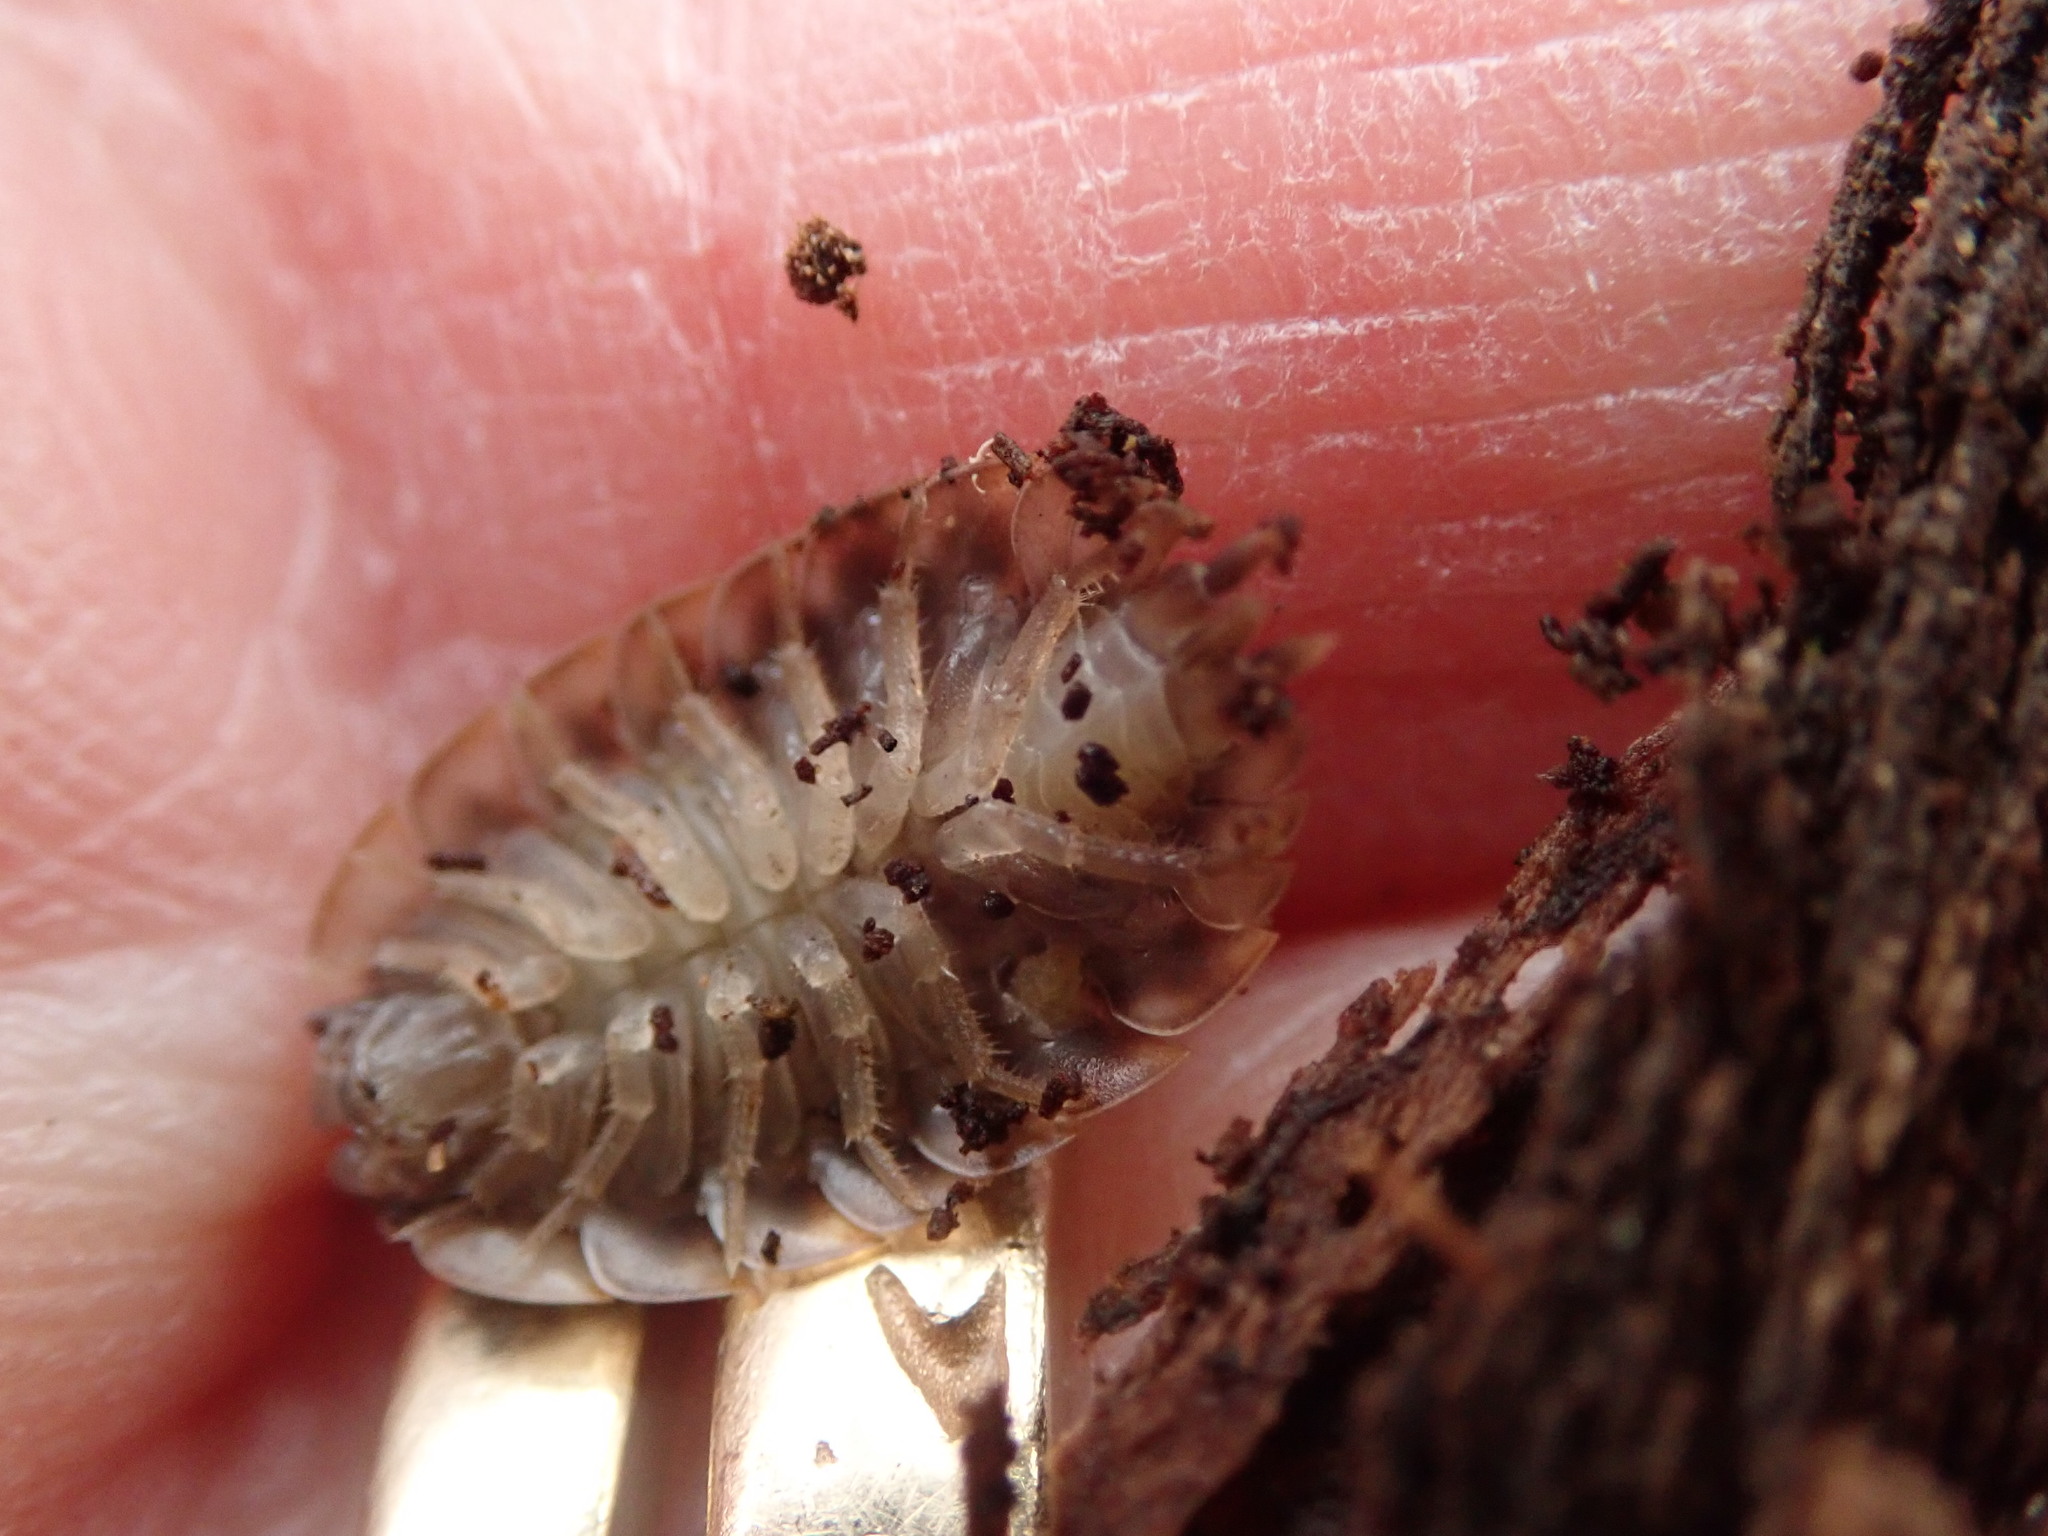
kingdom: Animalia
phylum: Arthropoda
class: Malacostraca
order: Isopoda
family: Oniscidae
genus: Oniscus
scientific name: Oniscus asellus
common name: Common shiny woodlouse
